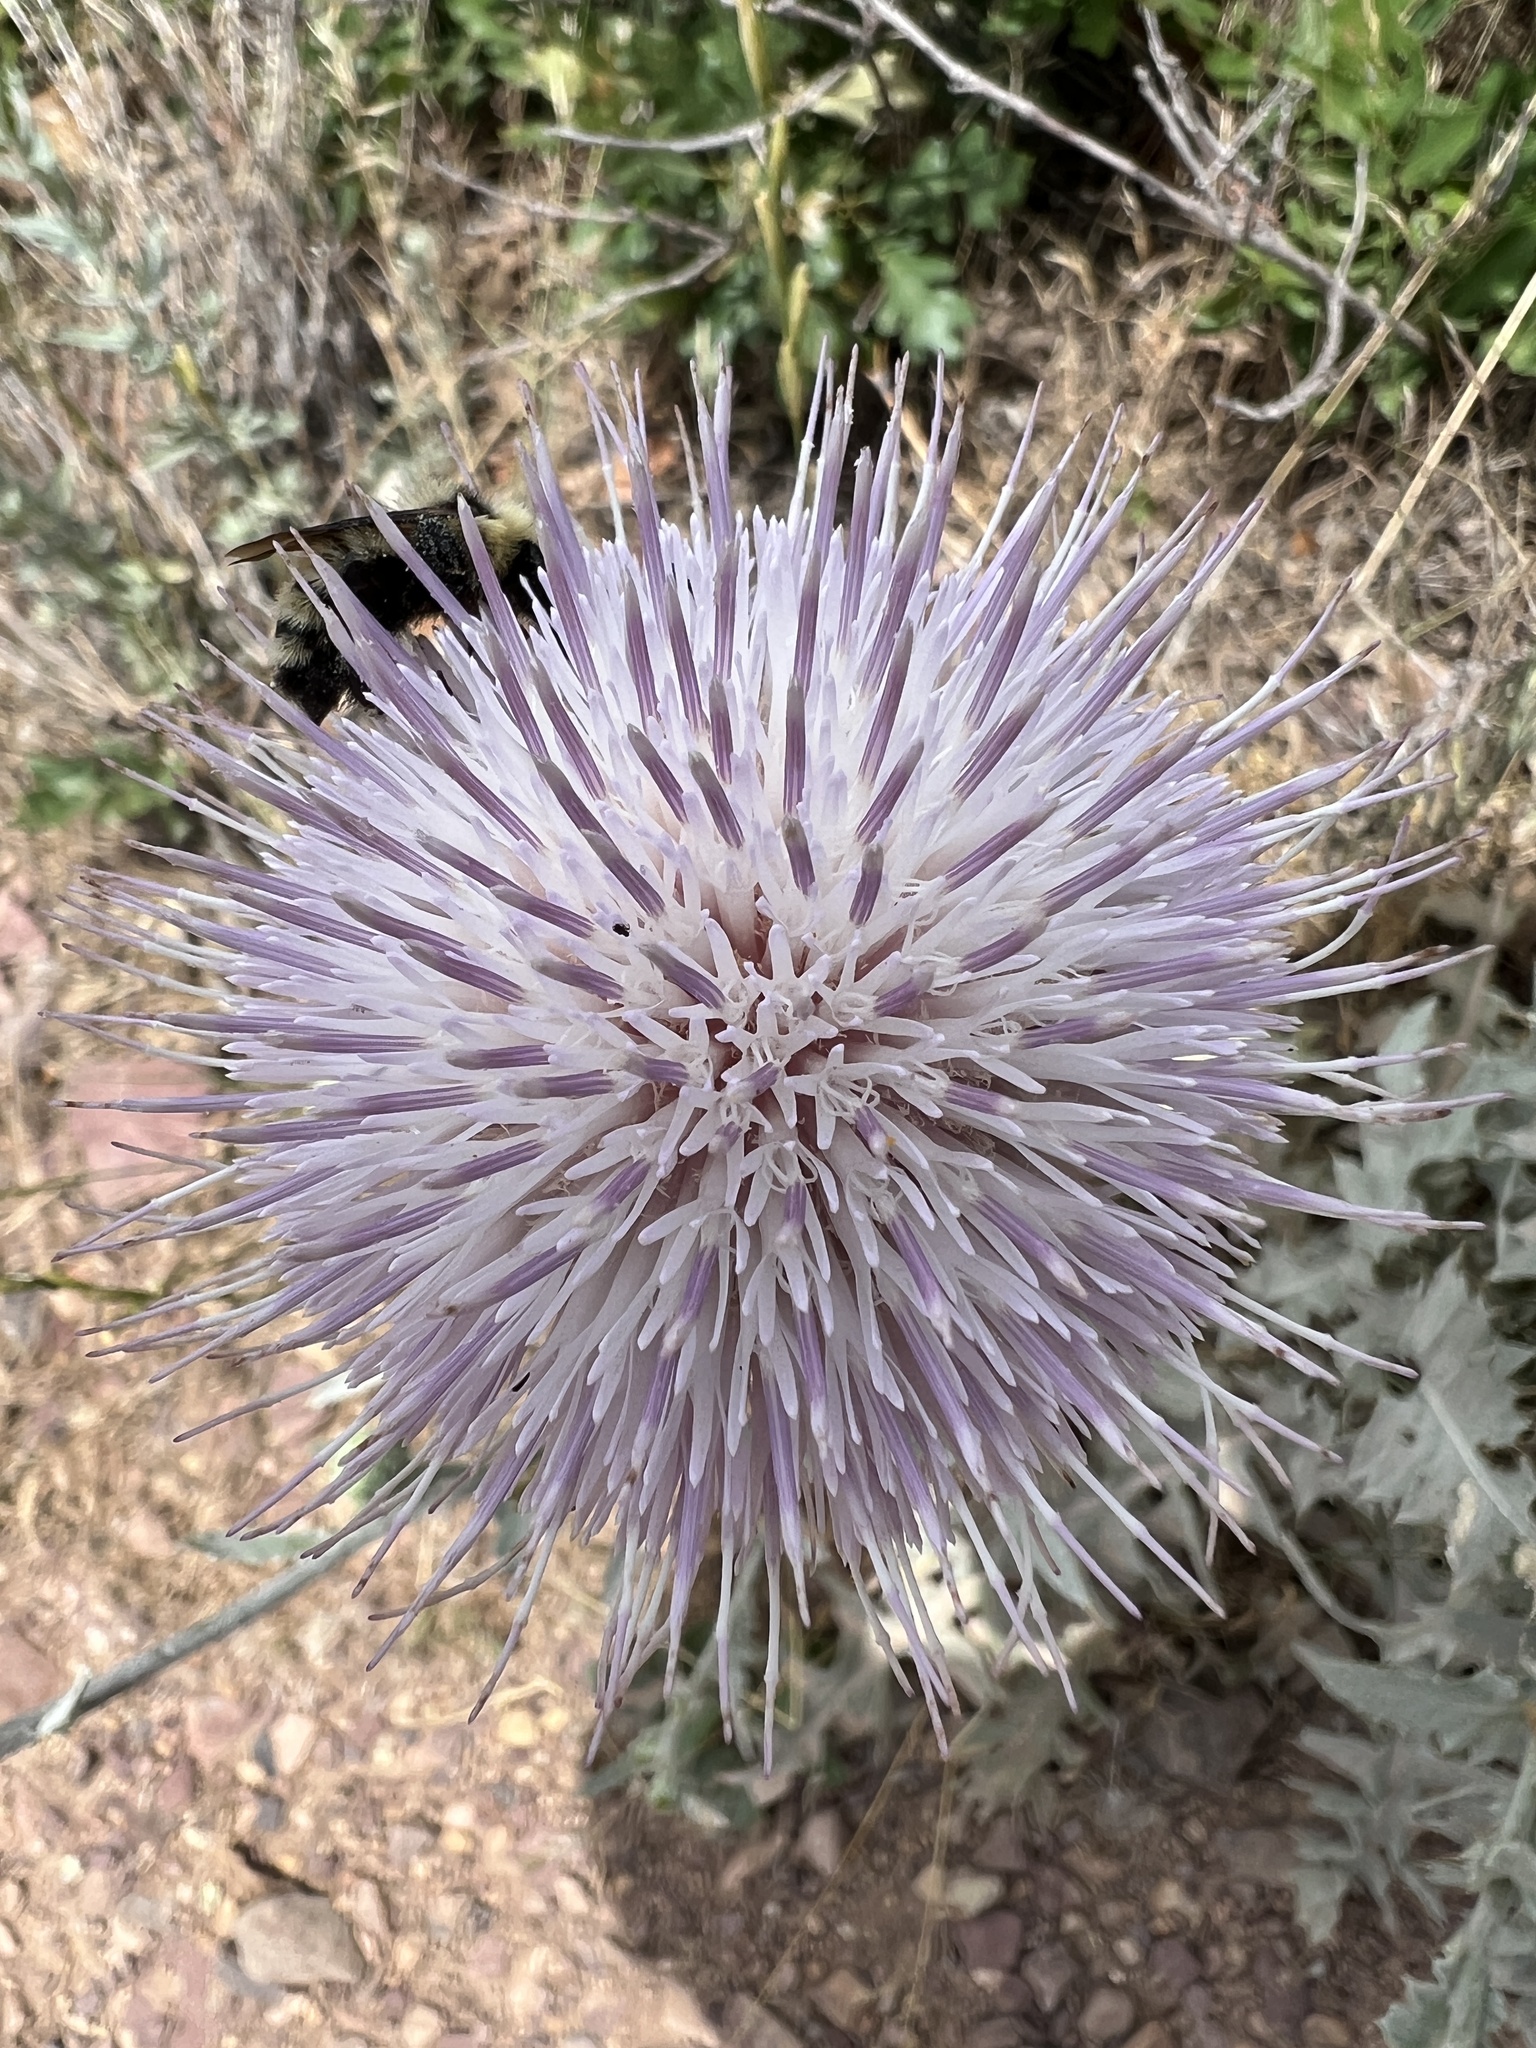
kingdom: Plantae
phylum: Tracheophyta
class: Magnoliopsida
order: Asterales
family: Asteraceae
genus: Cirsium
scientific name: Cirsium undulatum
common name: Pasture thistle
